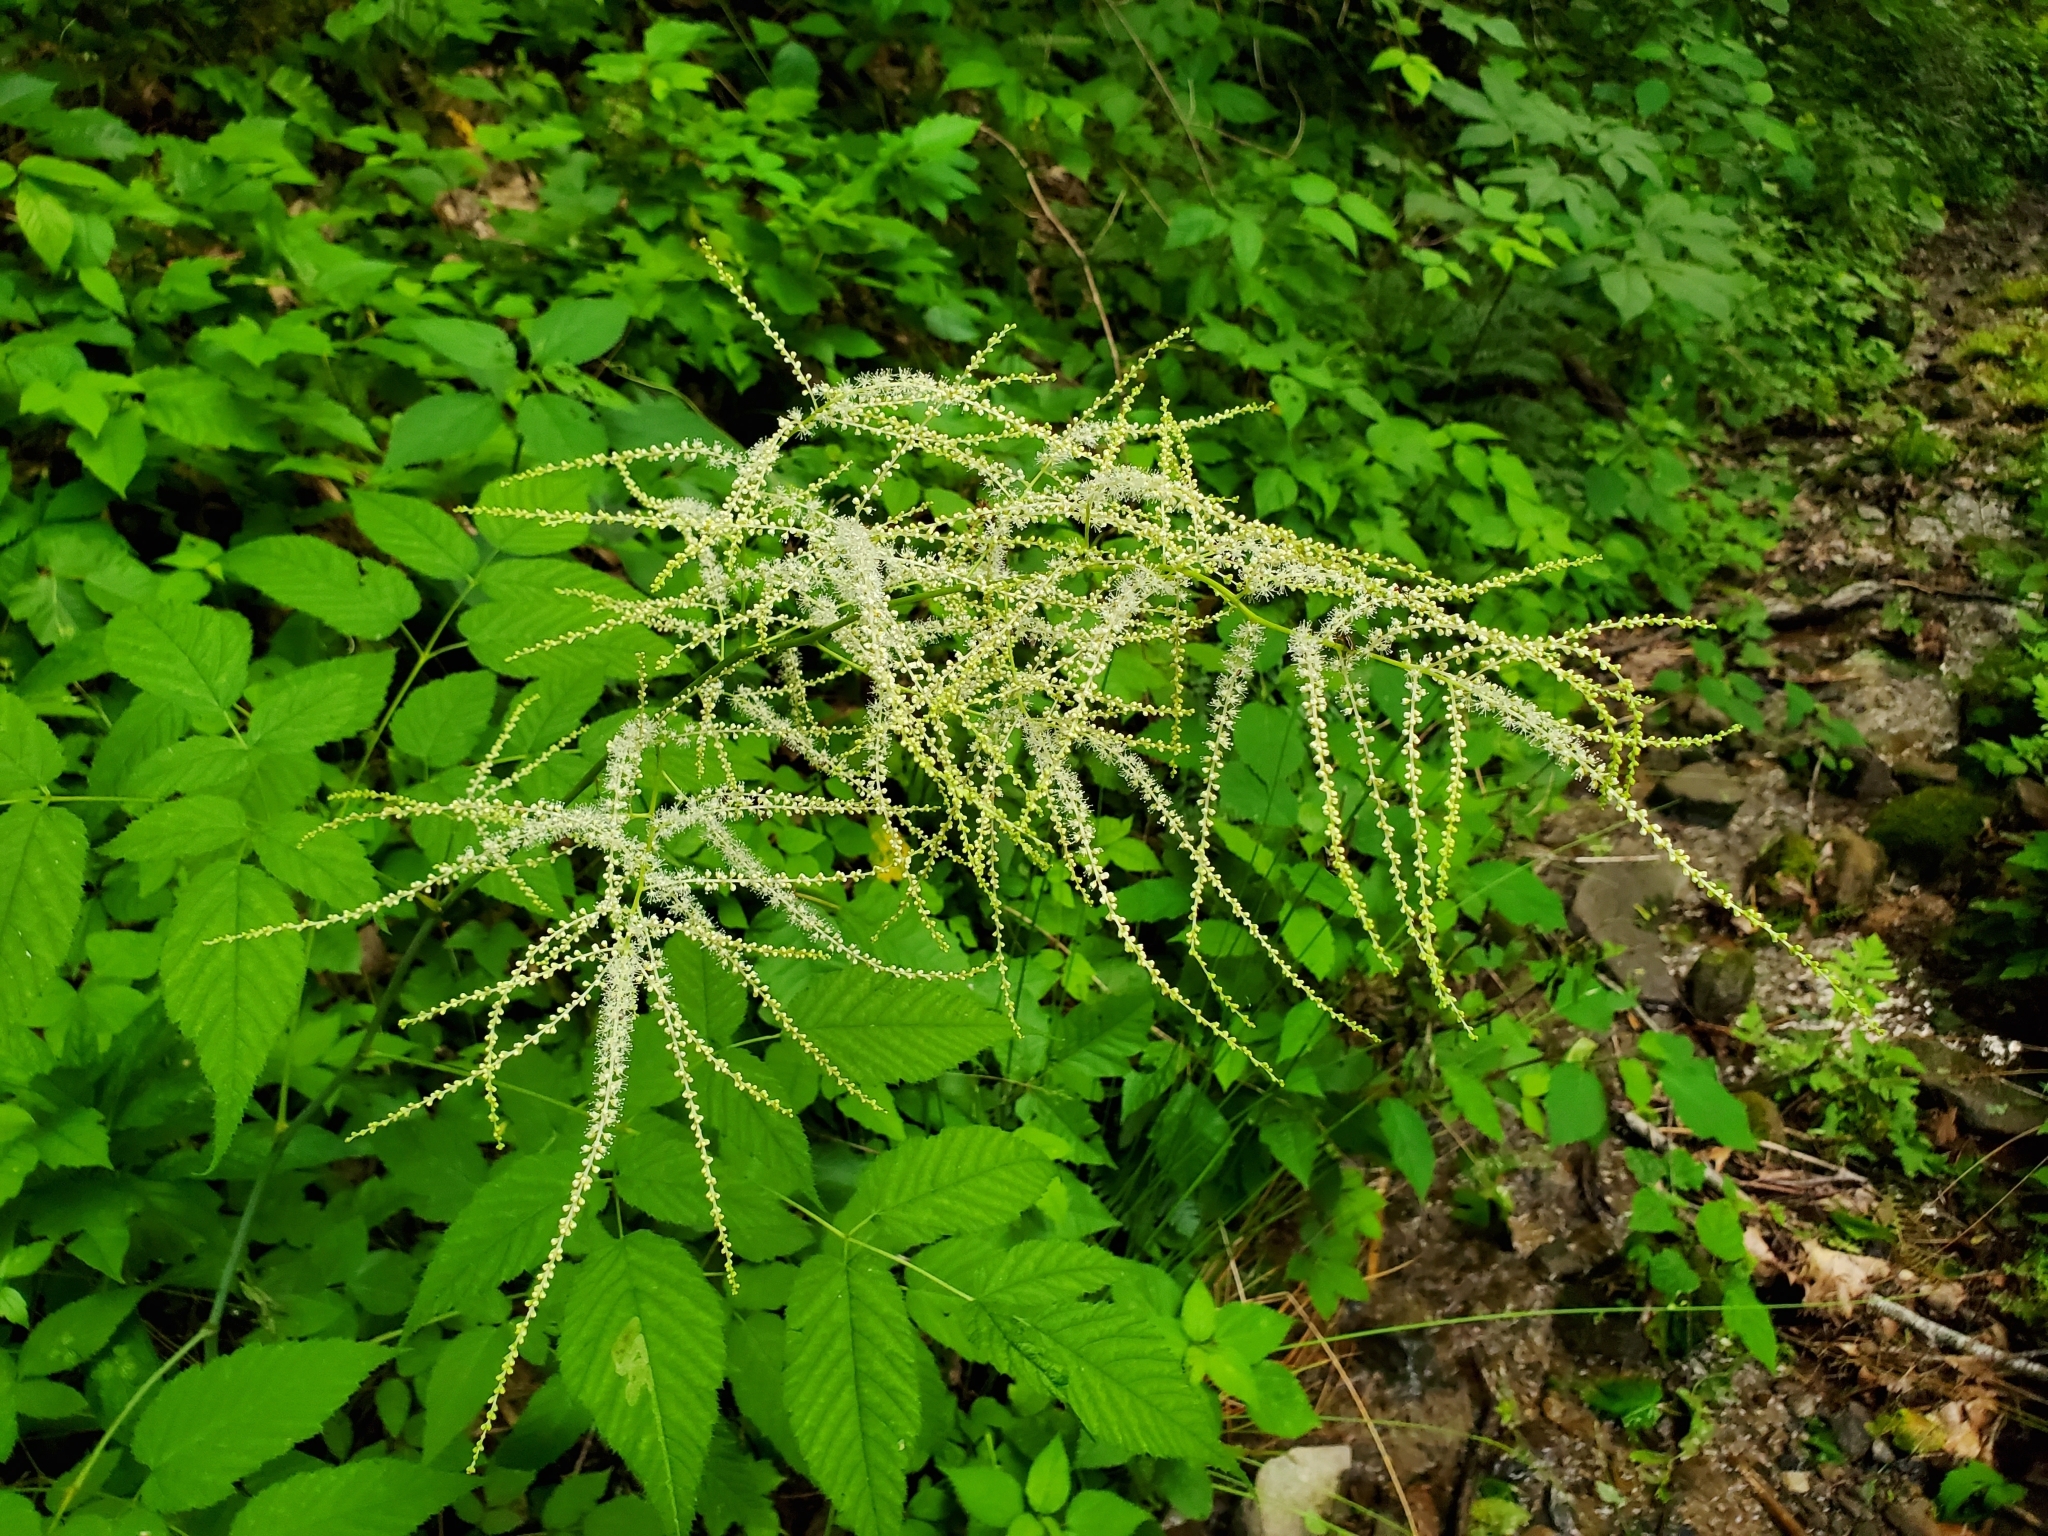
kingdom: Plantae
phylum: Tracheophyta
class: Magnoliopsida
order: Rosales
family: Rosaceae
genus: Aruncus
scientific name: Aruncus dioicus
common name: Buck's-beard
